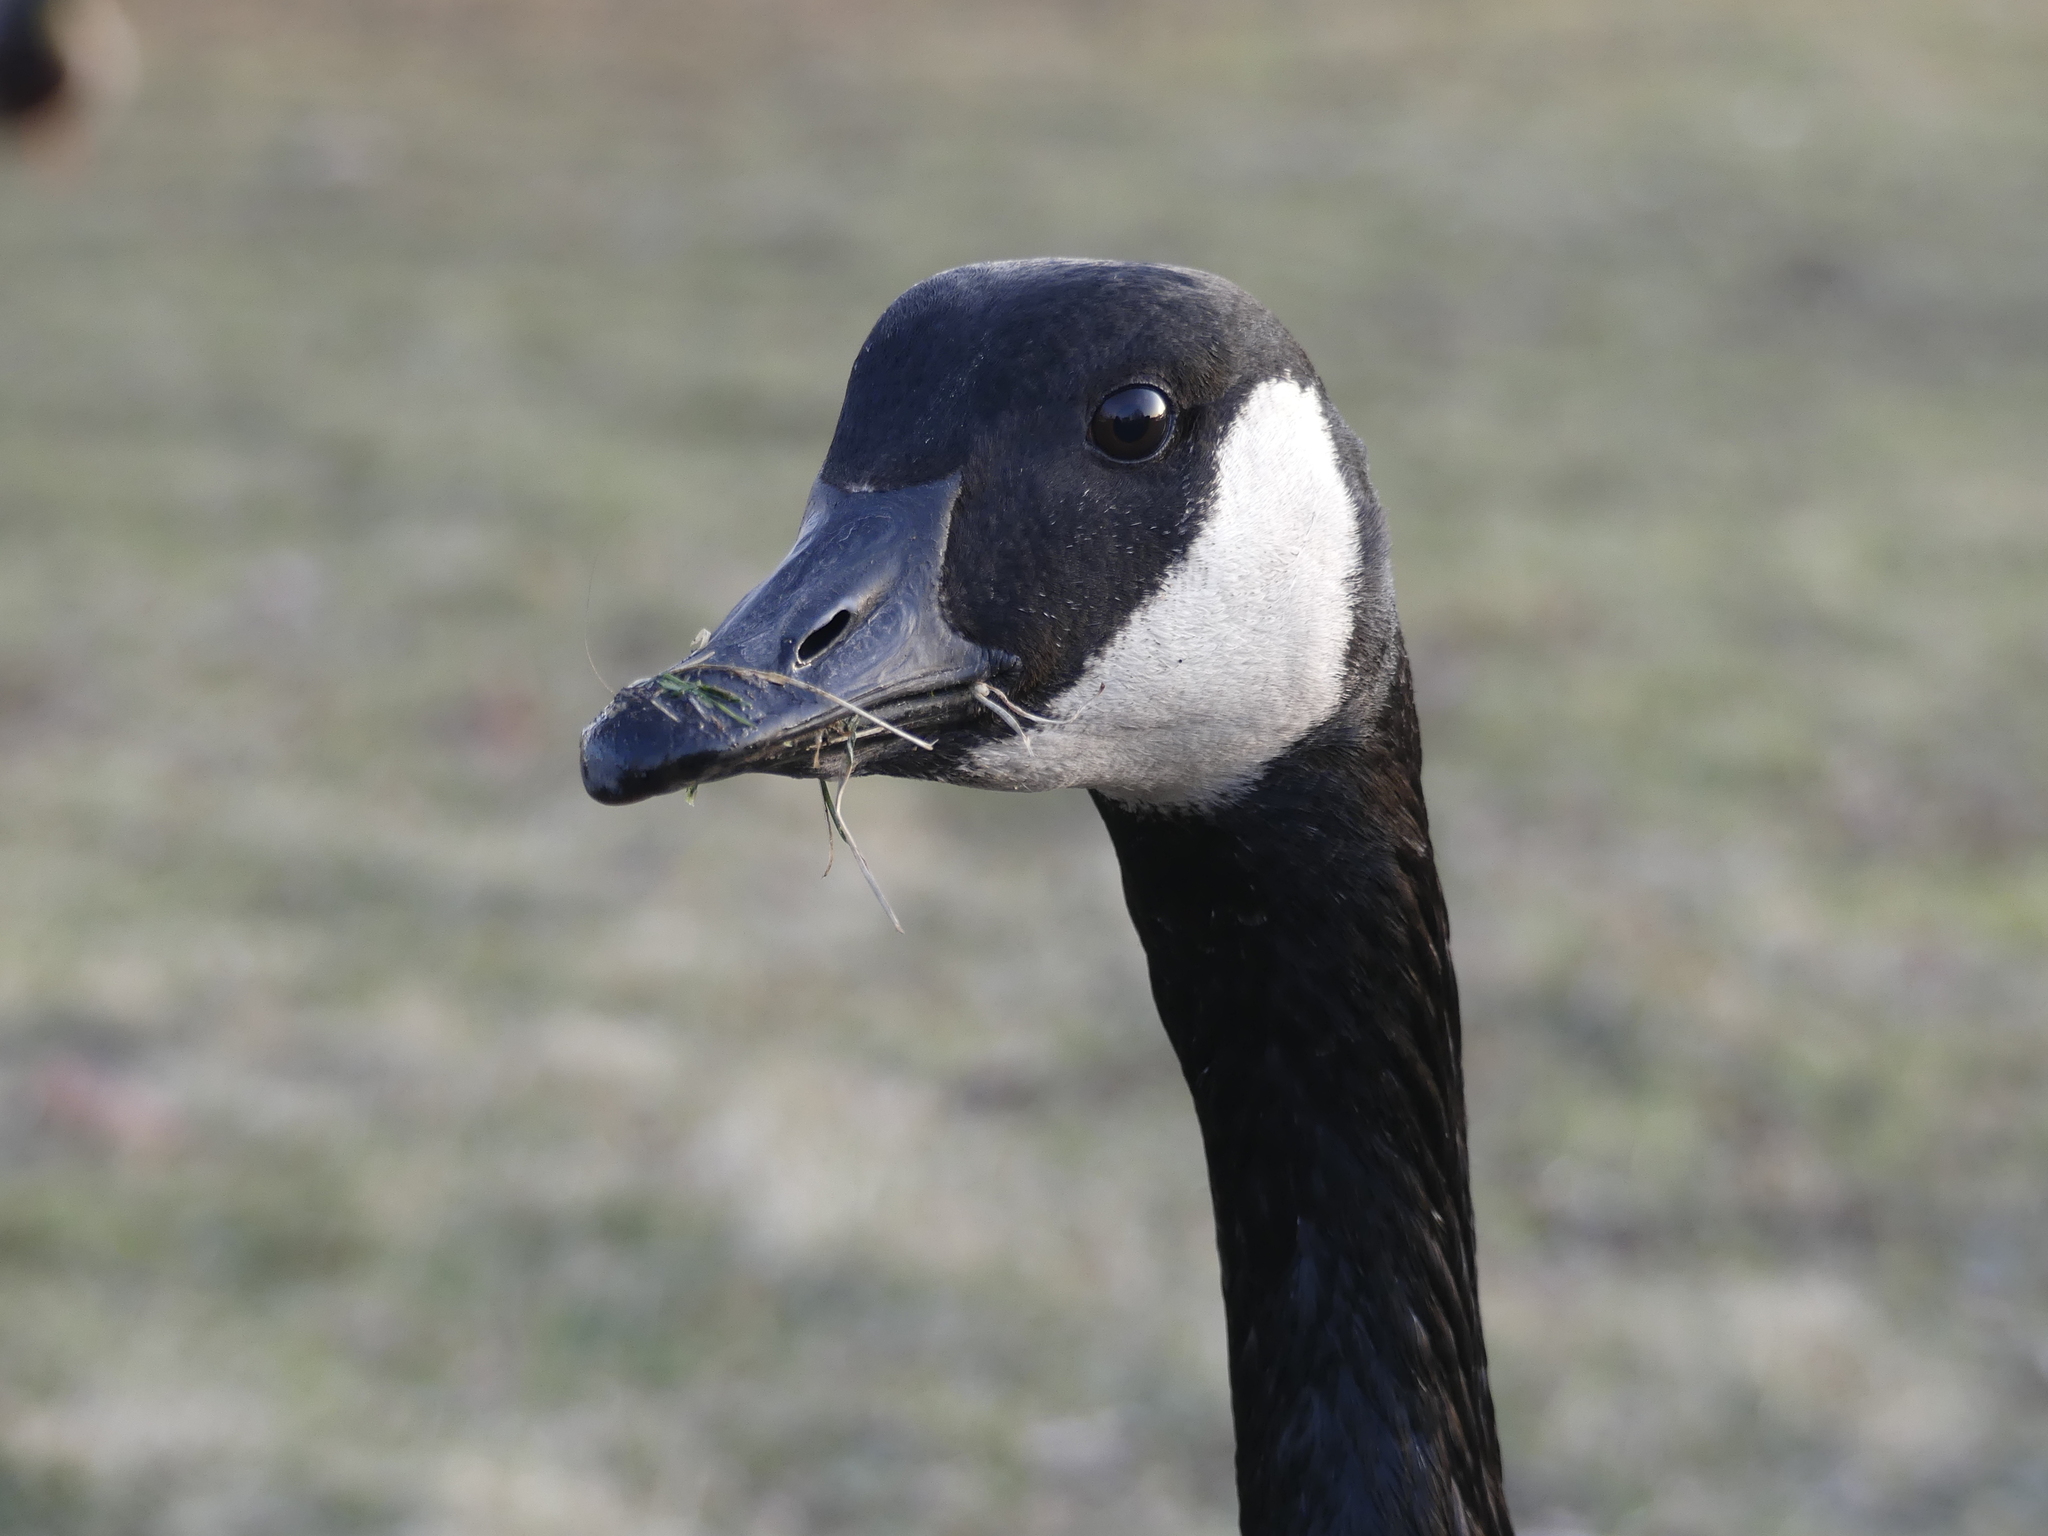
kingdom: Animalia
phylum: Chordata
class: Aves
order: Anseriformes
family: Anatidae
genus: Branta
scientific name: Branta canadensis
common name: Canada goose
